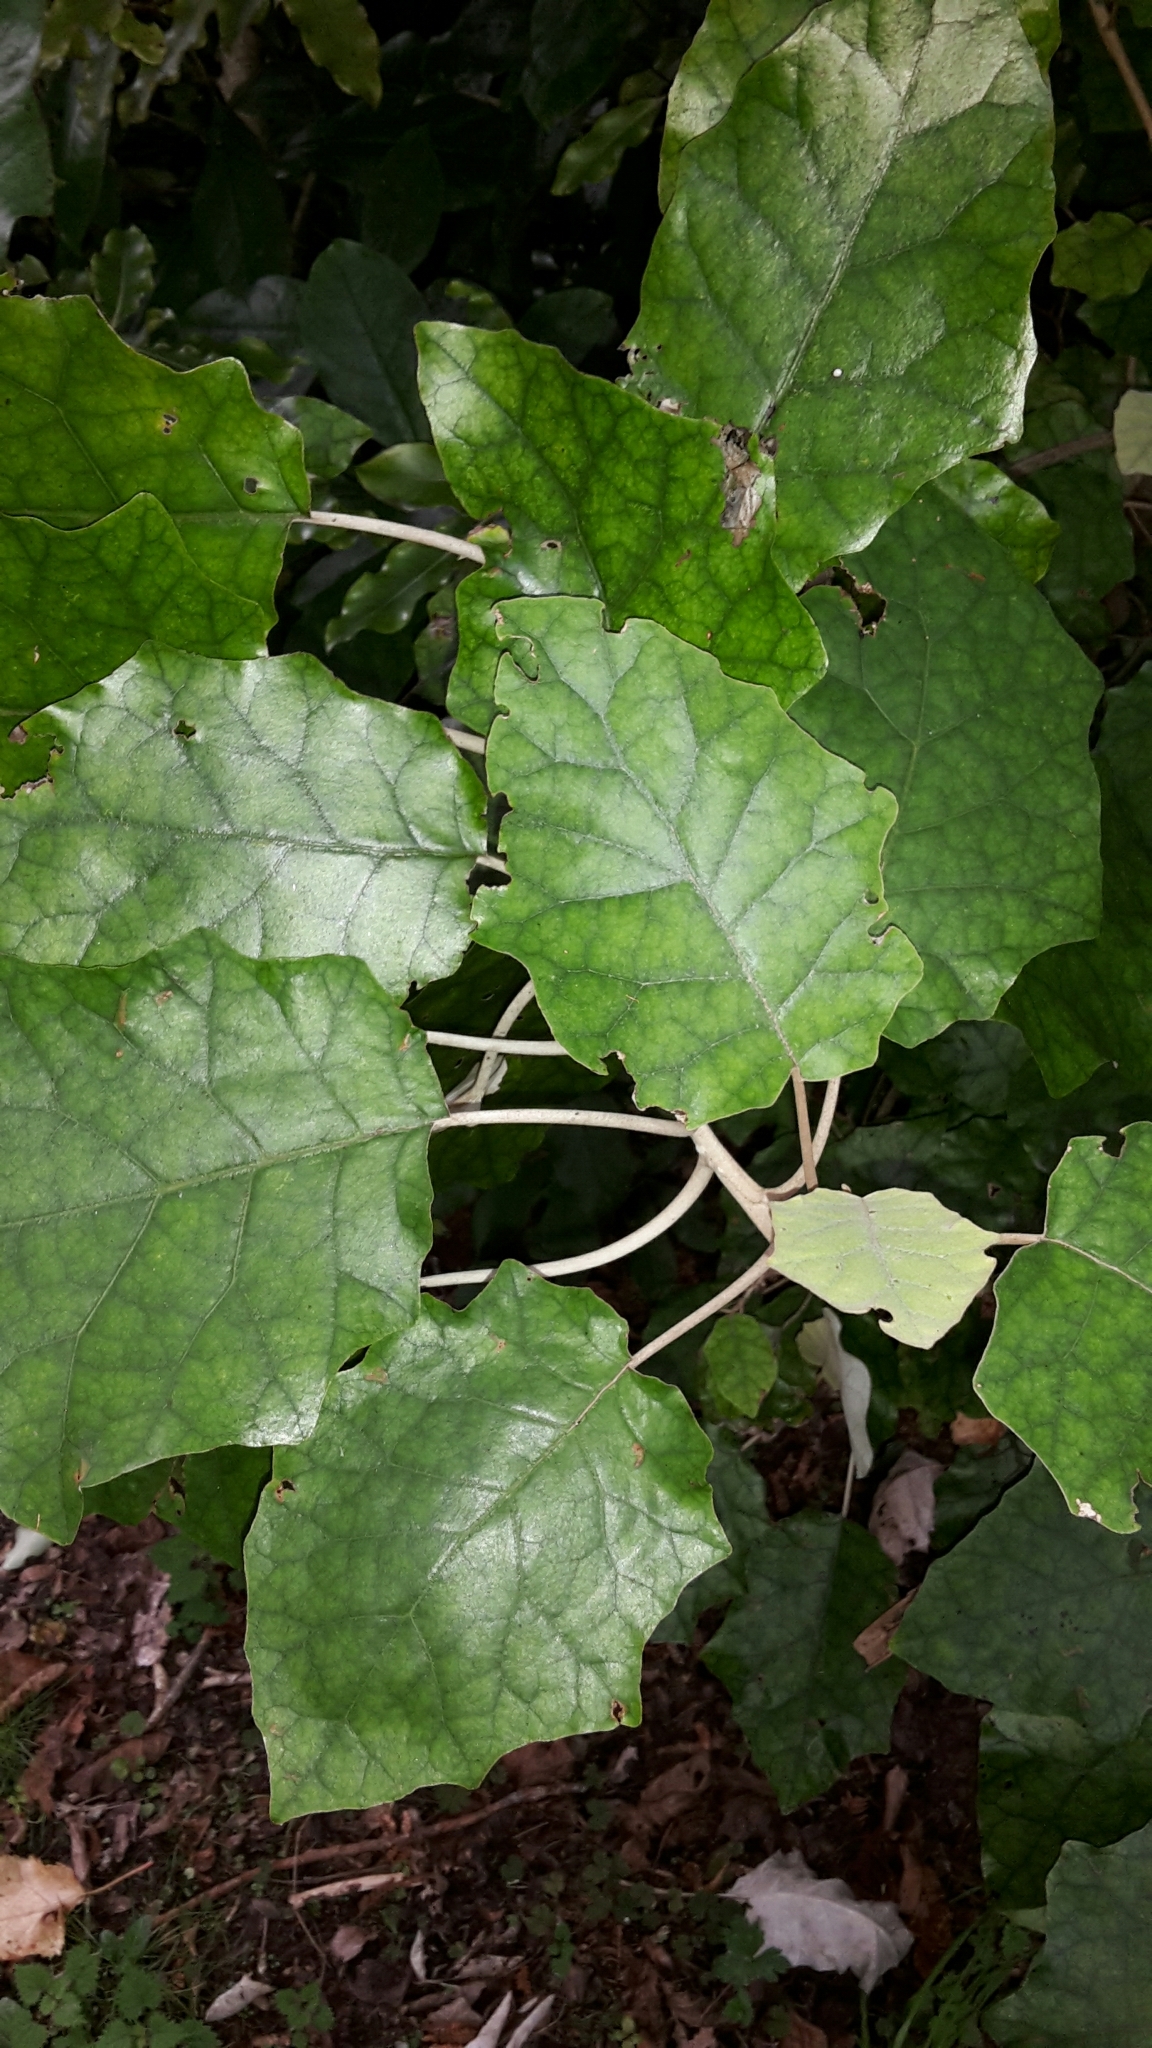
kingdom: Plantae
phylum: Tracheophyta
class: Magnoliopsida
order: Asterales
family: Asteraceae
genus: Brachyglottis
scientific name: Brachyglottis repanda
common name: Hedge ragwort
